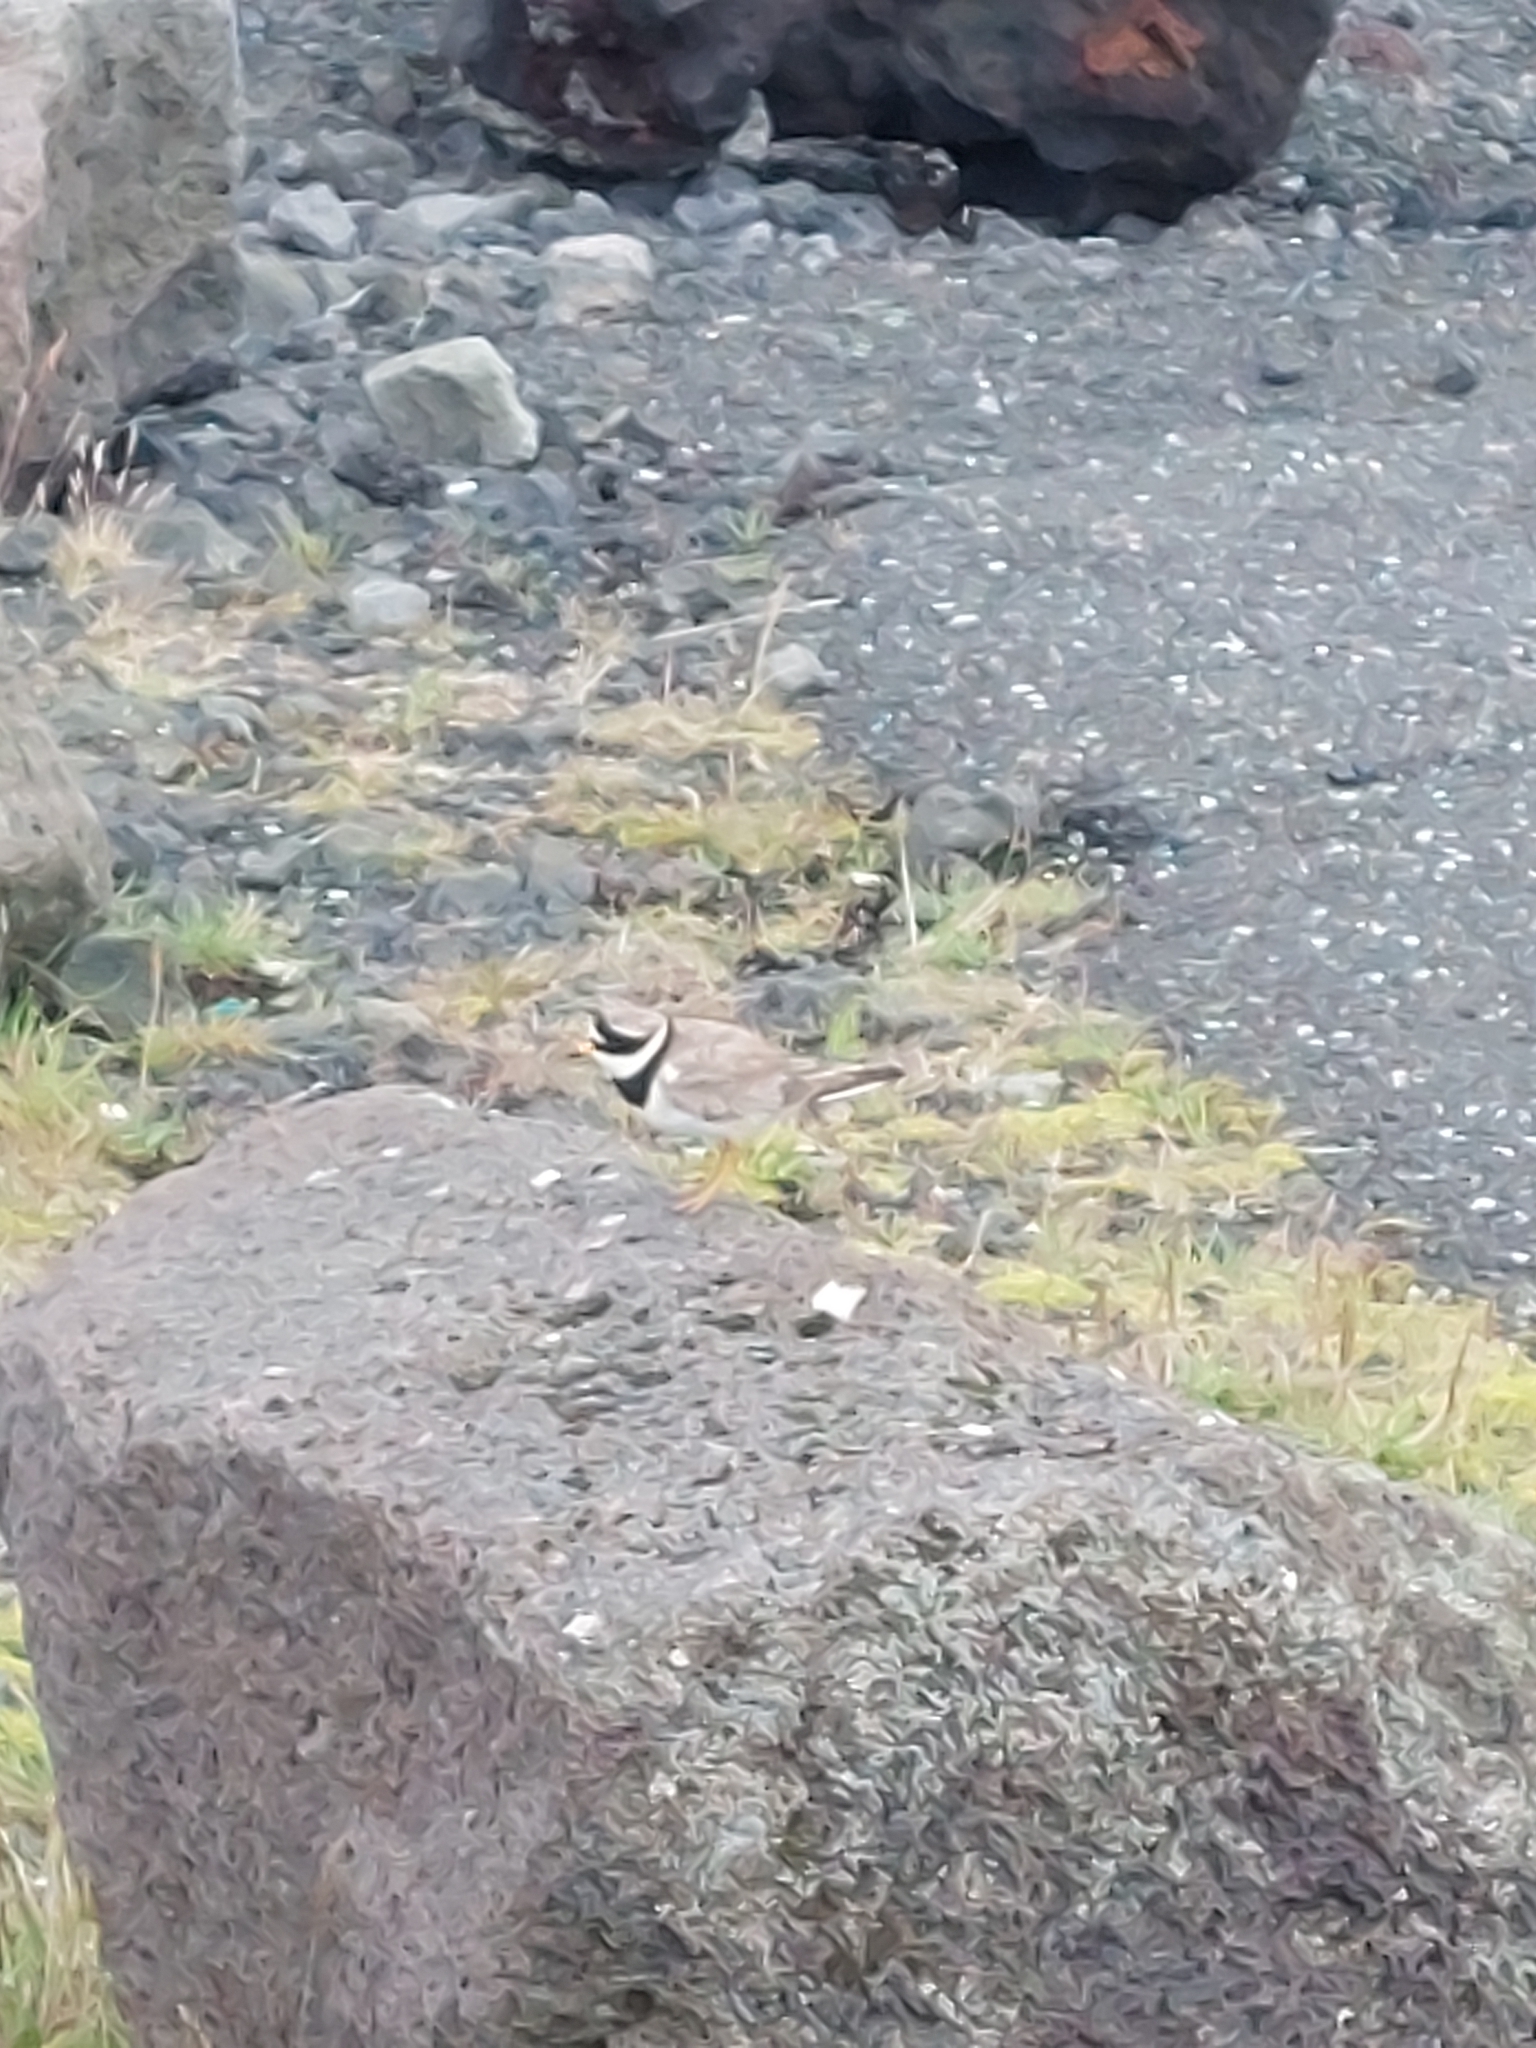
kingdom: Animalia
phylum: Chordata
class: Aves
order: Charadriiformes
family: Charadriidae
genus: Charadrius
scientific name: Charadrius hiaticula
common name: Common ringed plover
